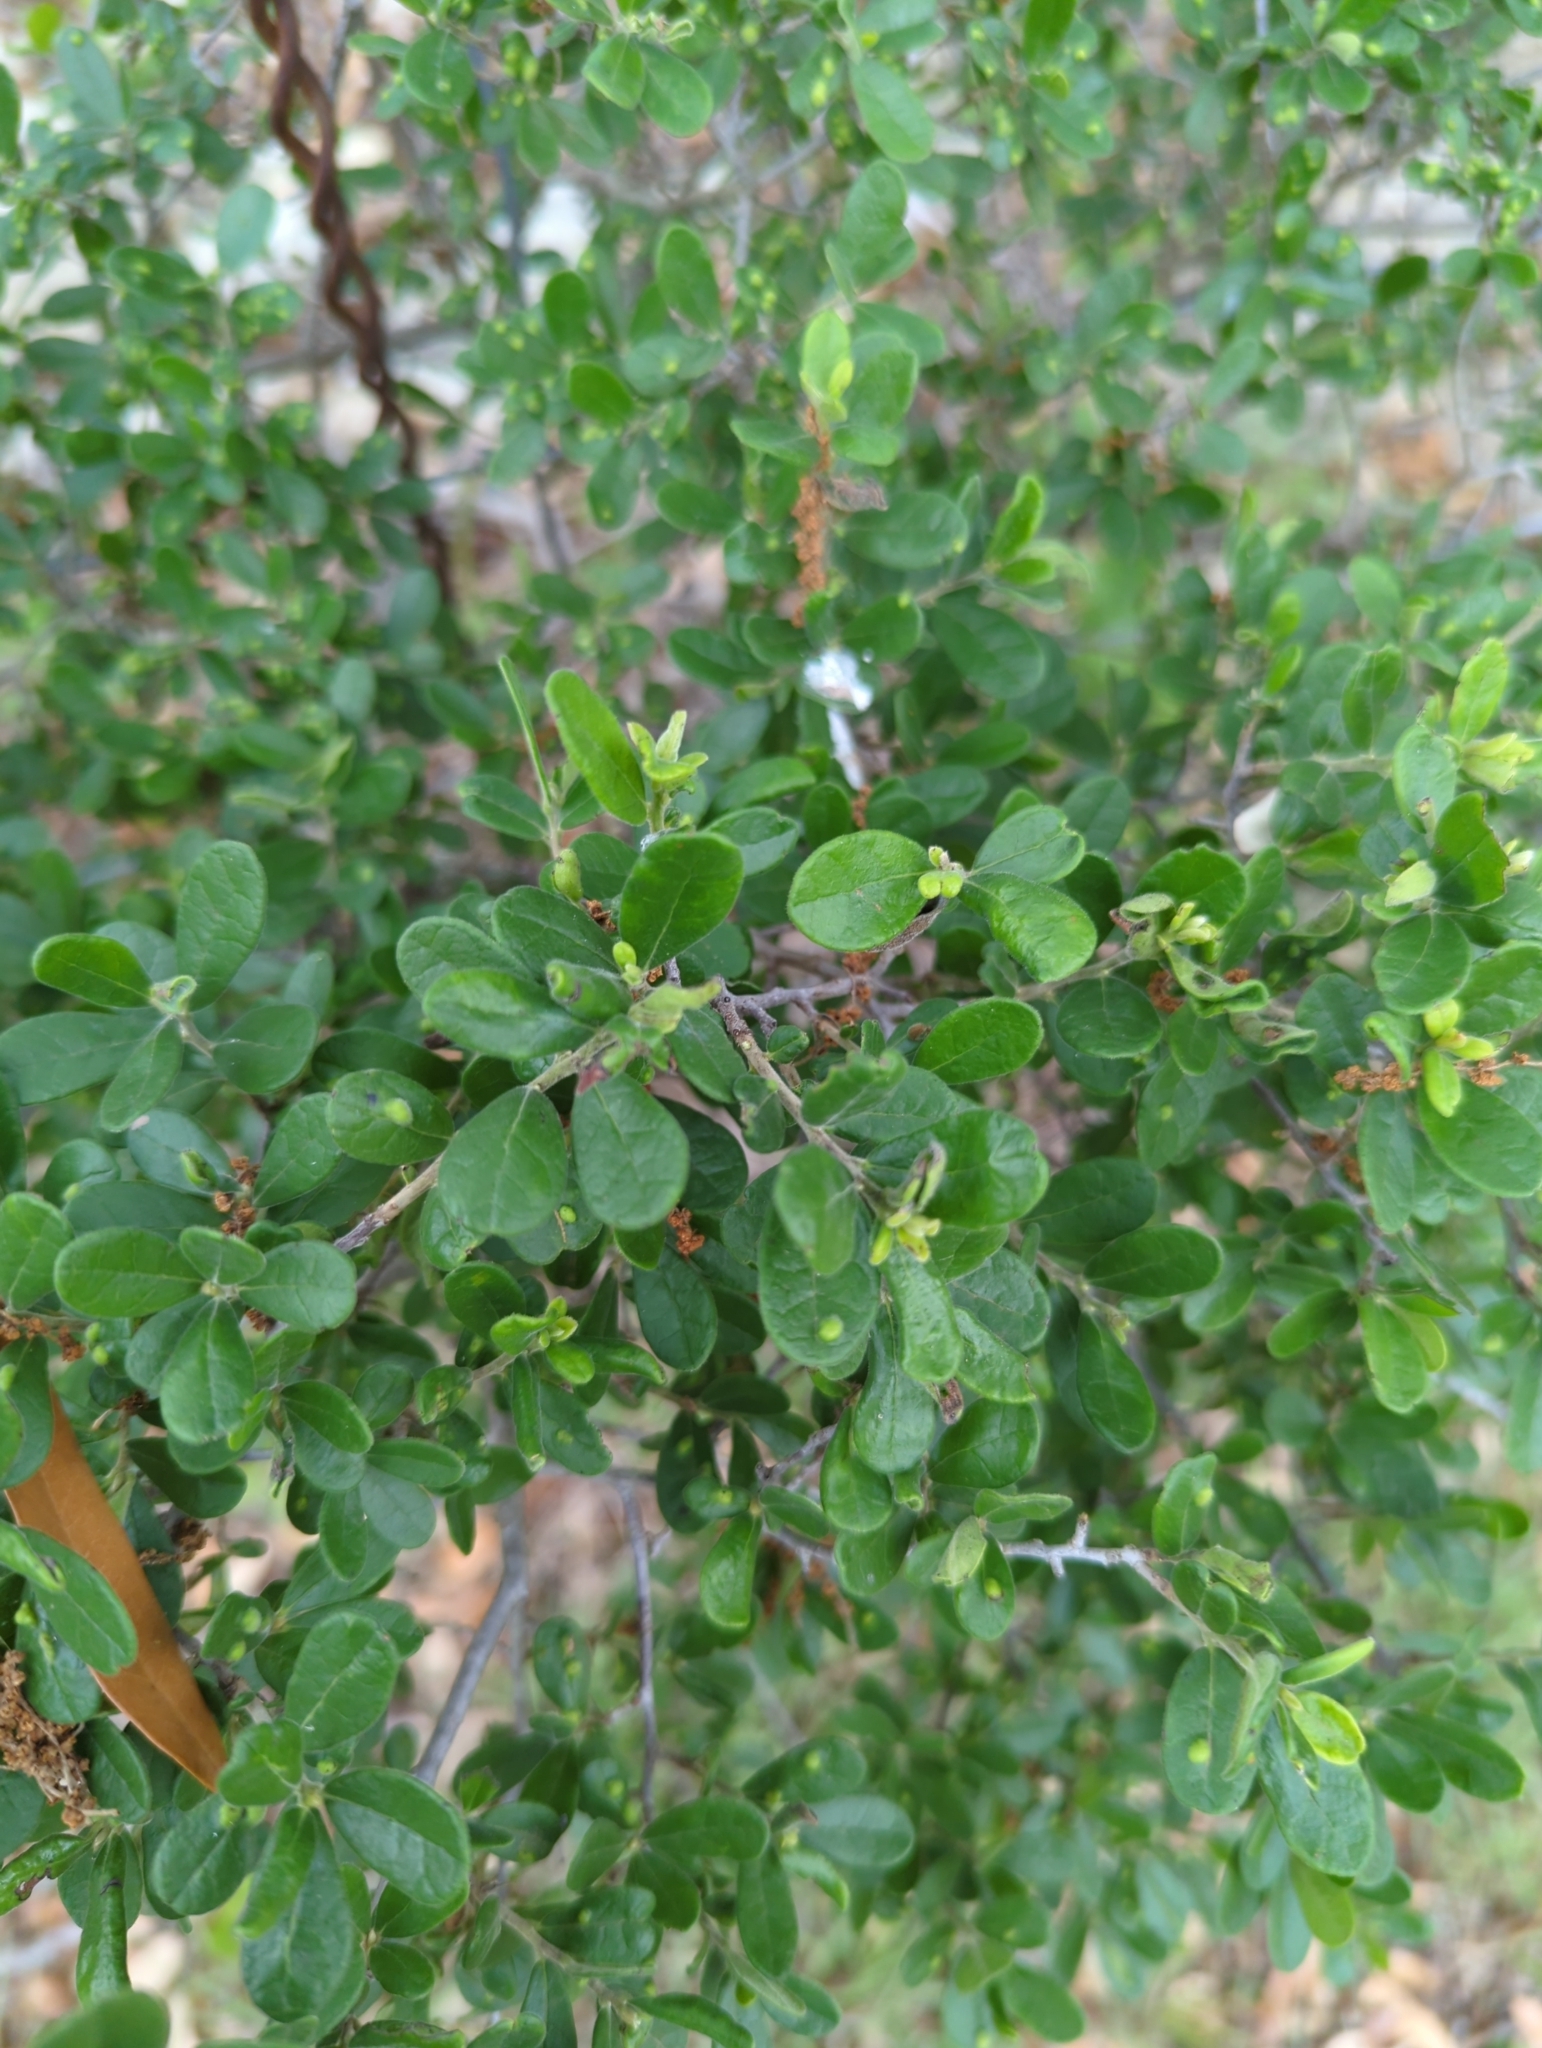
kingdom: Plantae
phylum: Tracheophyta
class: Magnoliopsida
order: Ericales
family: Ebenaceae
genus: Diospyros
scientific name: Diospyros texana
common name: Texas persimmon
